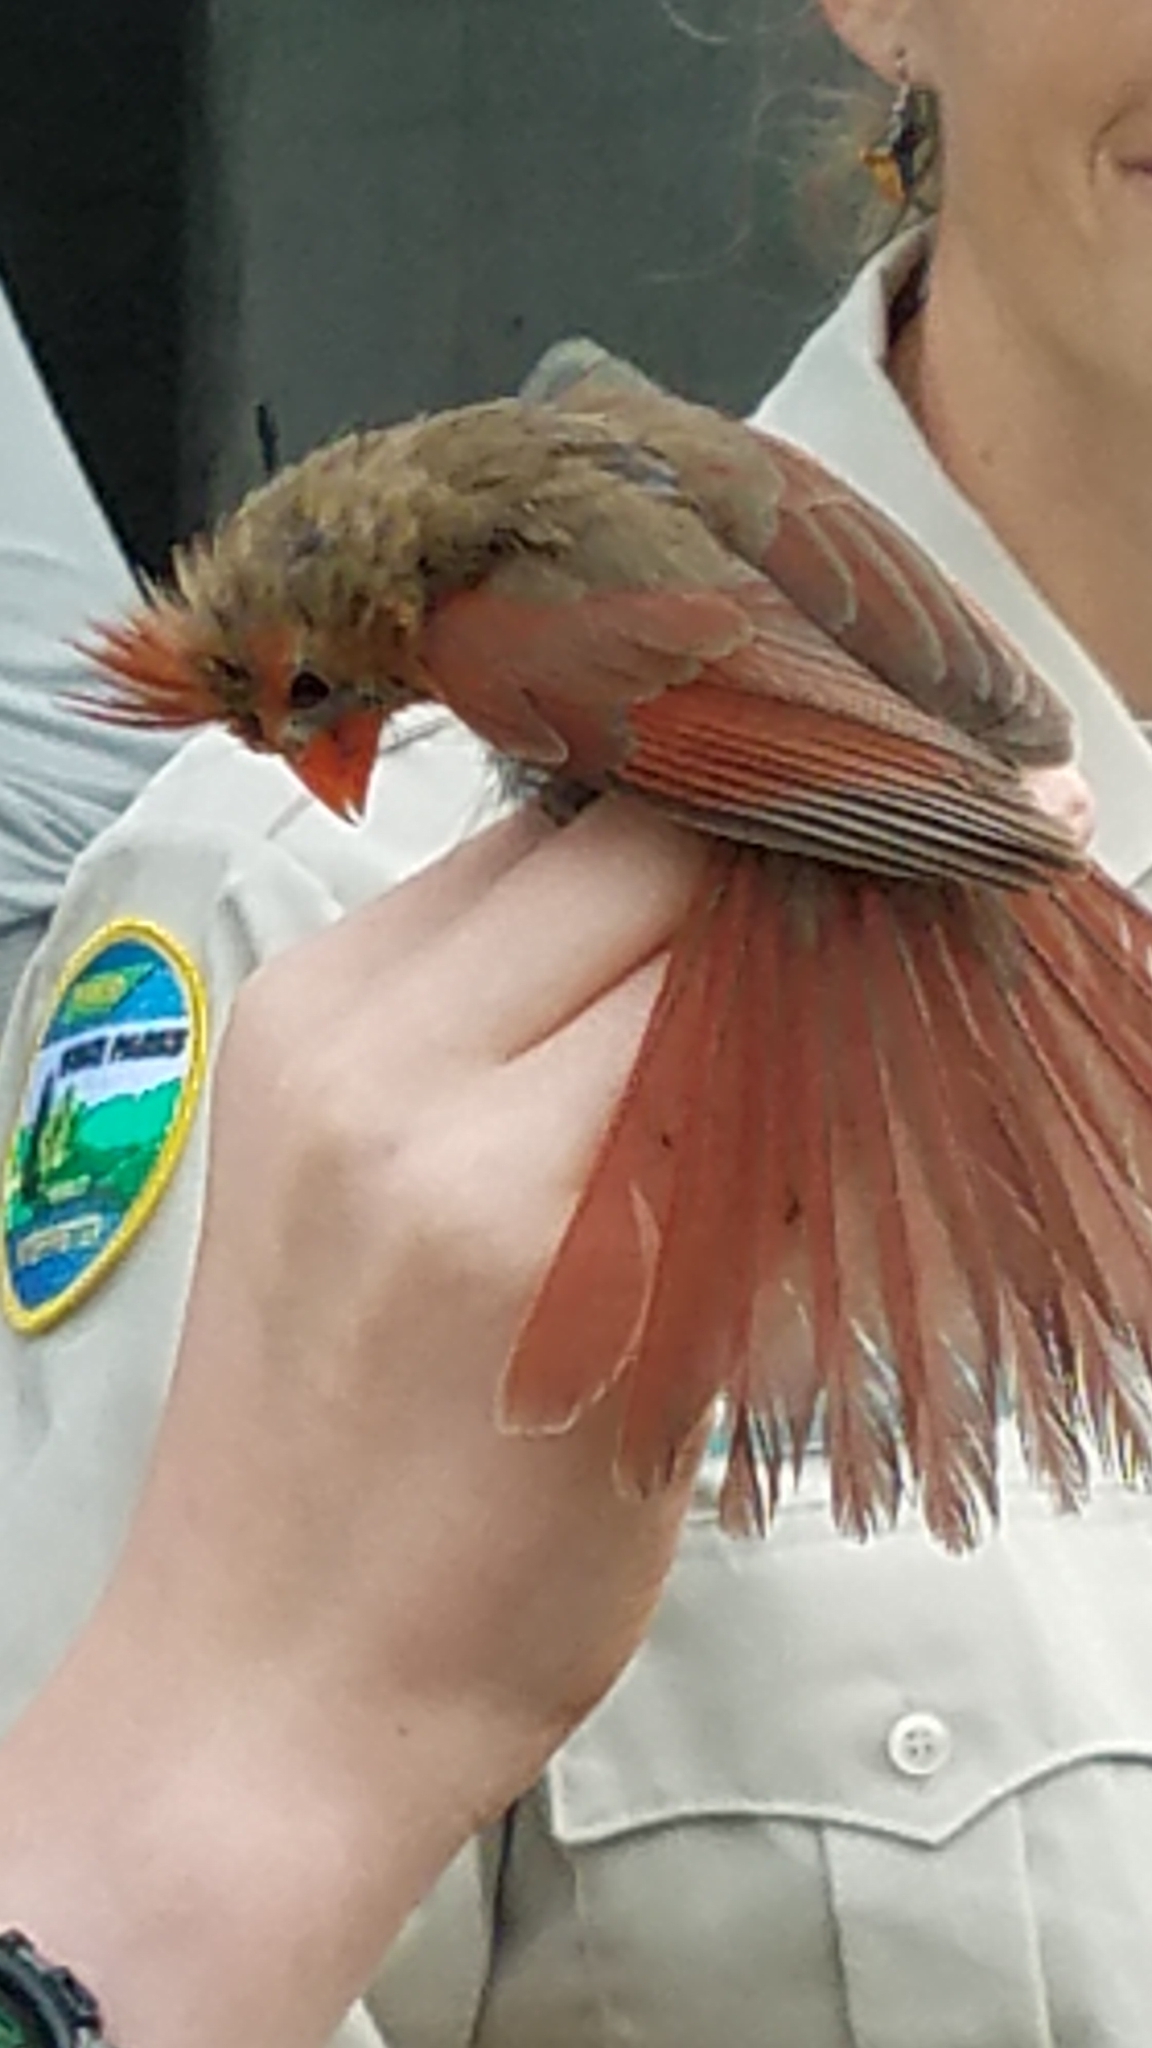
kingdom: Animalia
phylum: Chordata
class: Aves
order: Passeriformes
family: Cardinalidae
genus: Cardinalis
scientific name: Cardinalis cardinalis
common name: Northern cardinal
